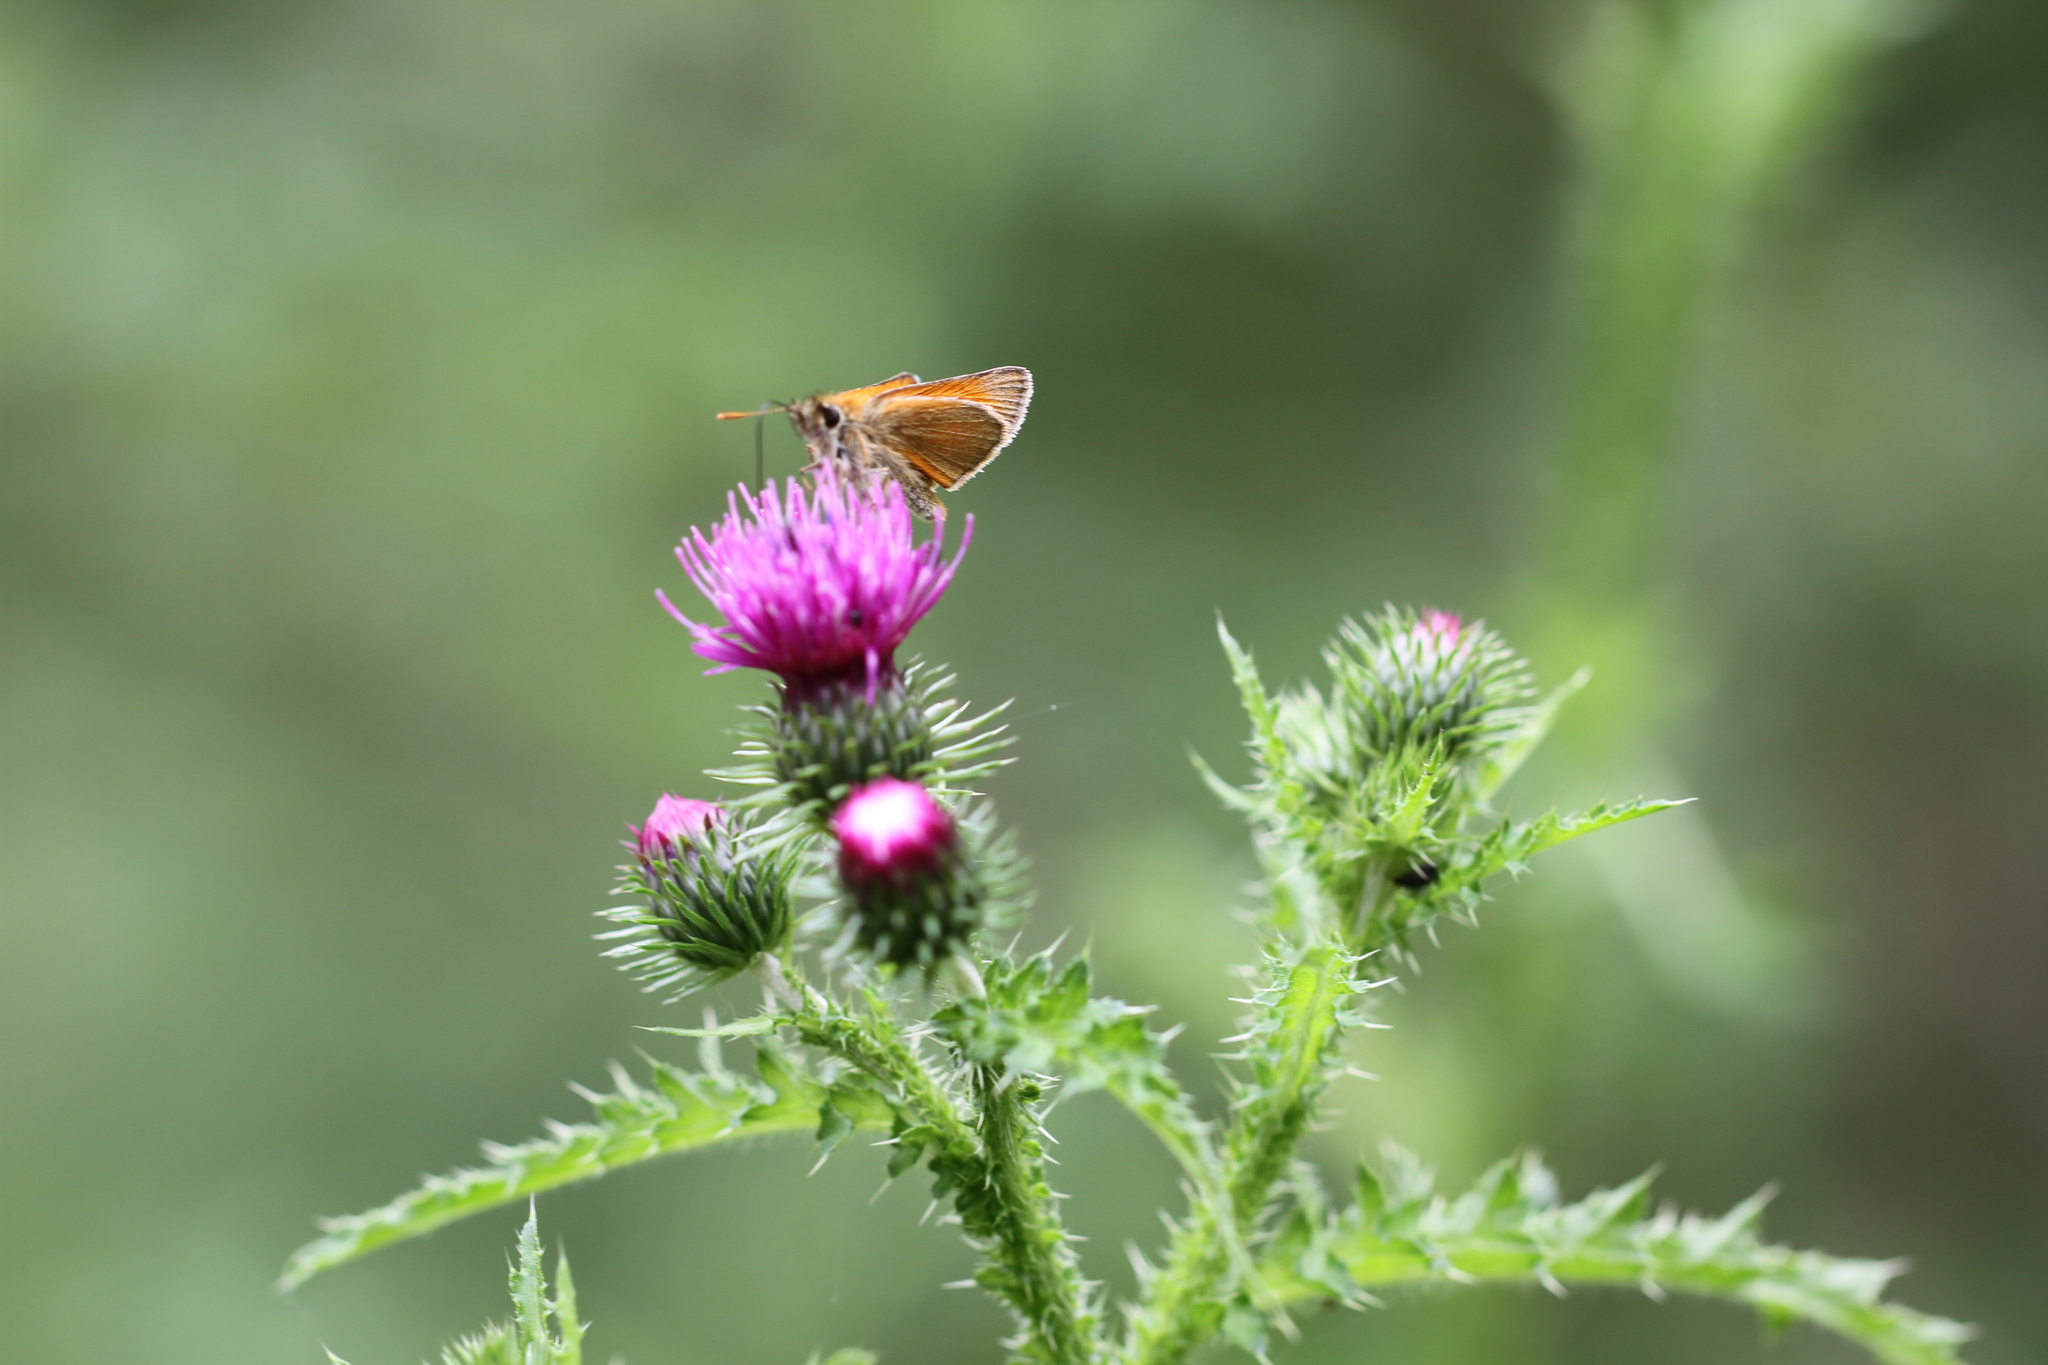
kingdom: Animalia
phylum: Arthropoda
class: Insecta
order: Lepidoptera
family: Hesperiidae
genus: Thymelicus
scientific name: Thymelicus sylvestris
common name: Small skipper
